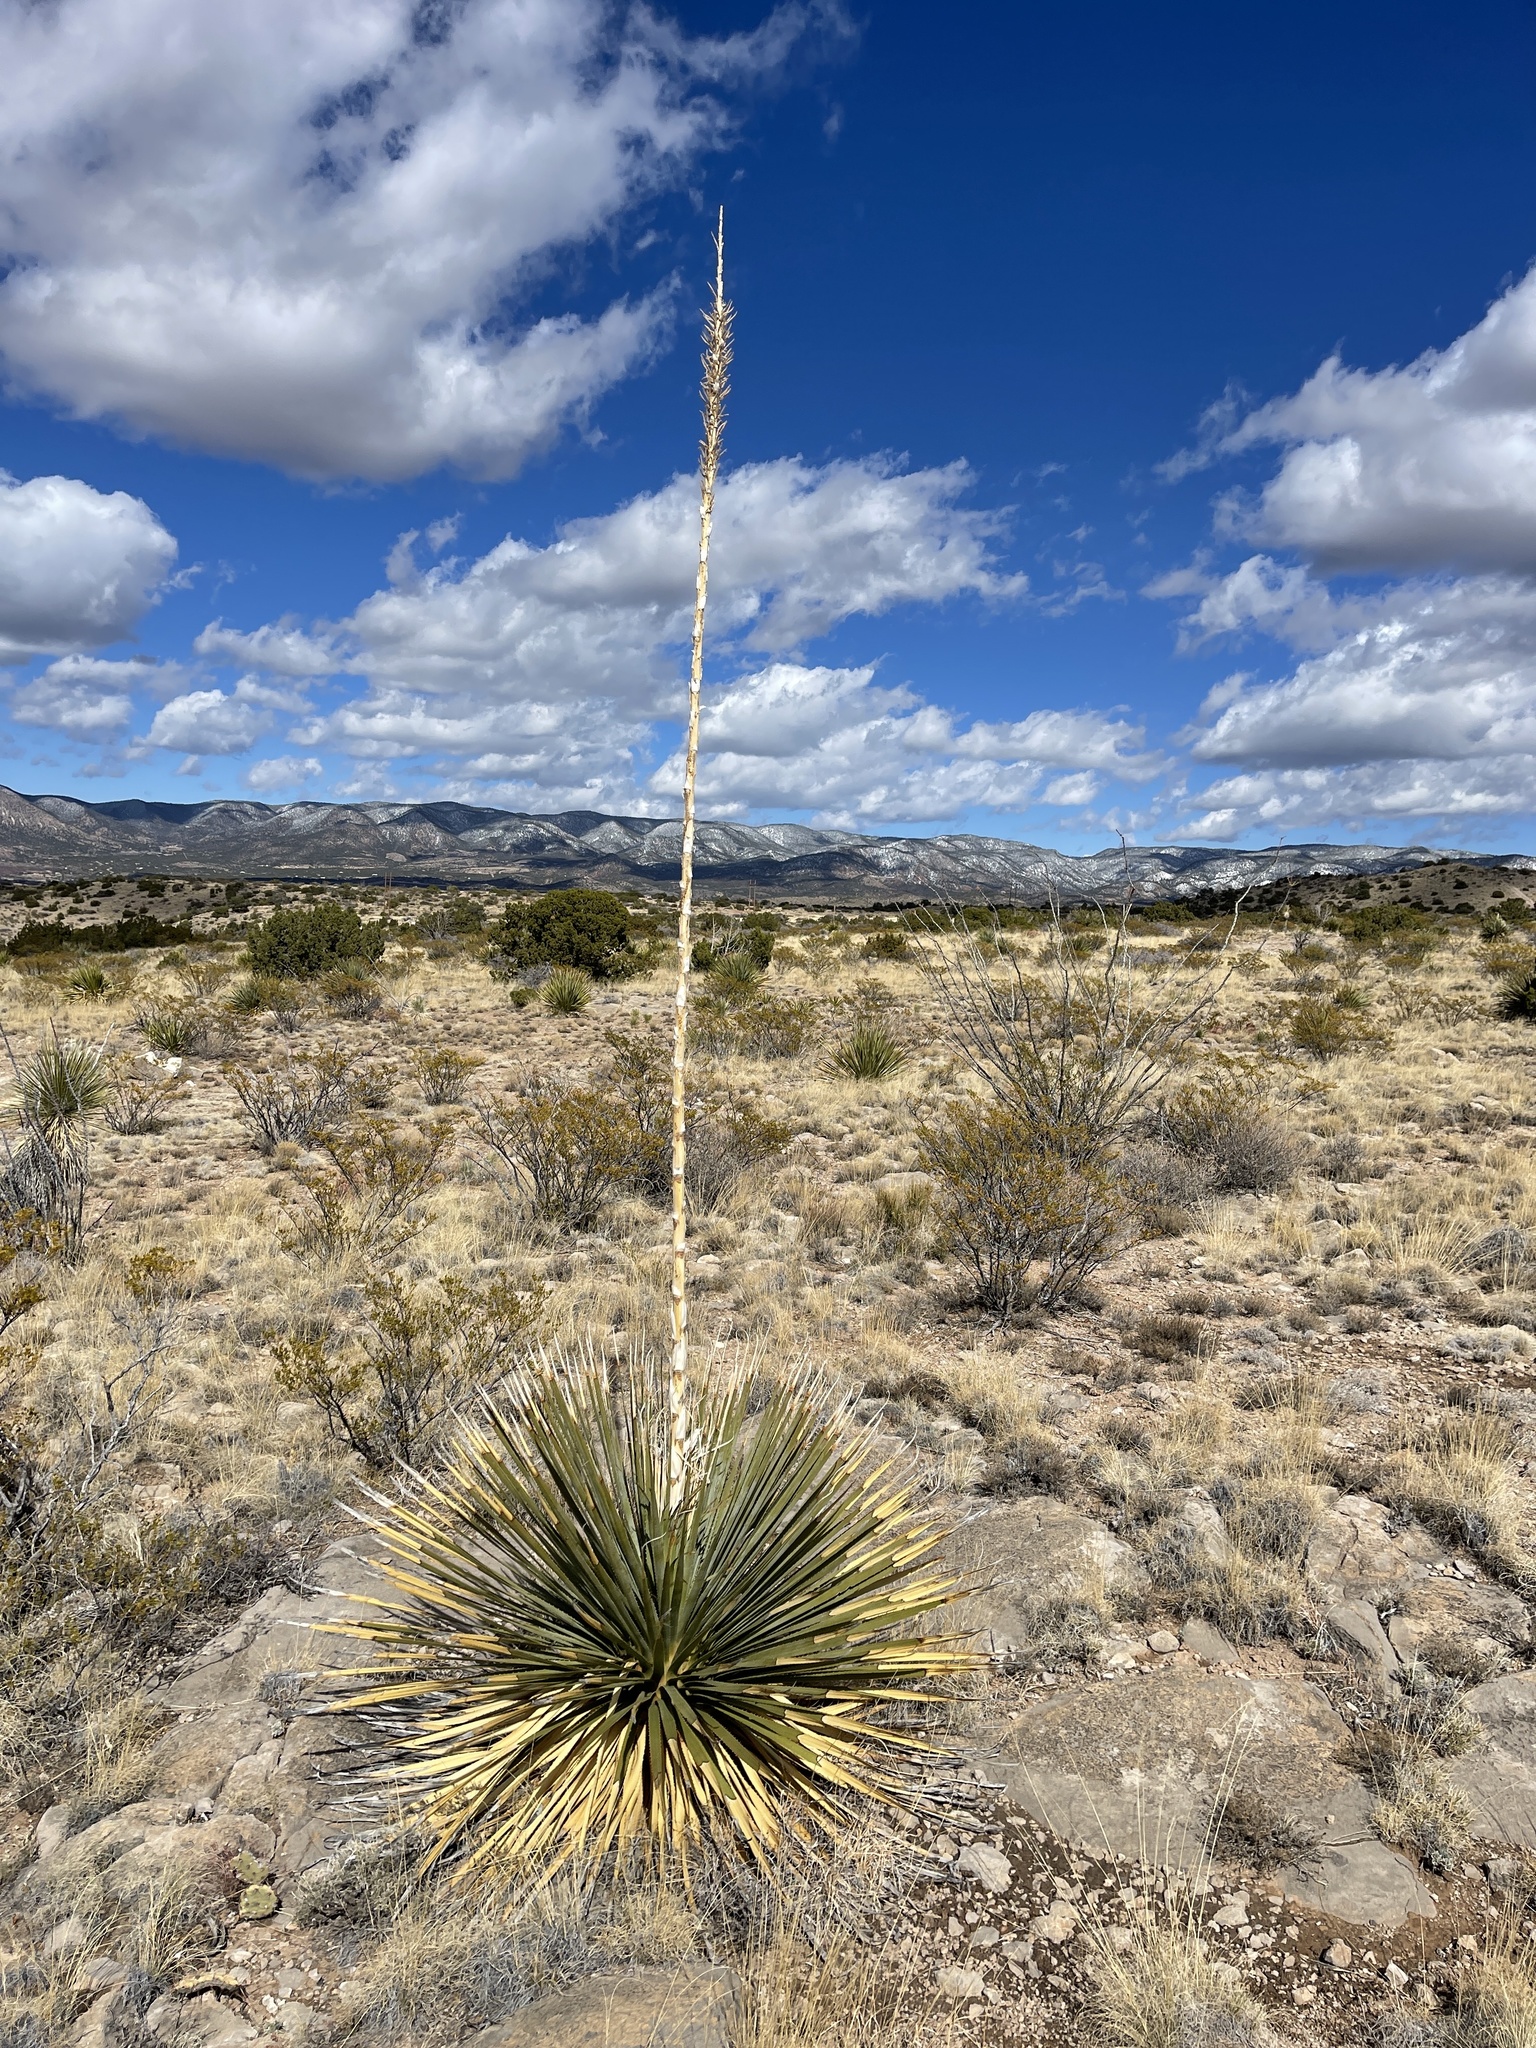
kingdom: Plantae
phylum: Tracheophyta
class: Liliopsida
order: Asparagales
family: Asparagaceae
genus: Dasylirion
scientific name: Dasylirion wheeleri
